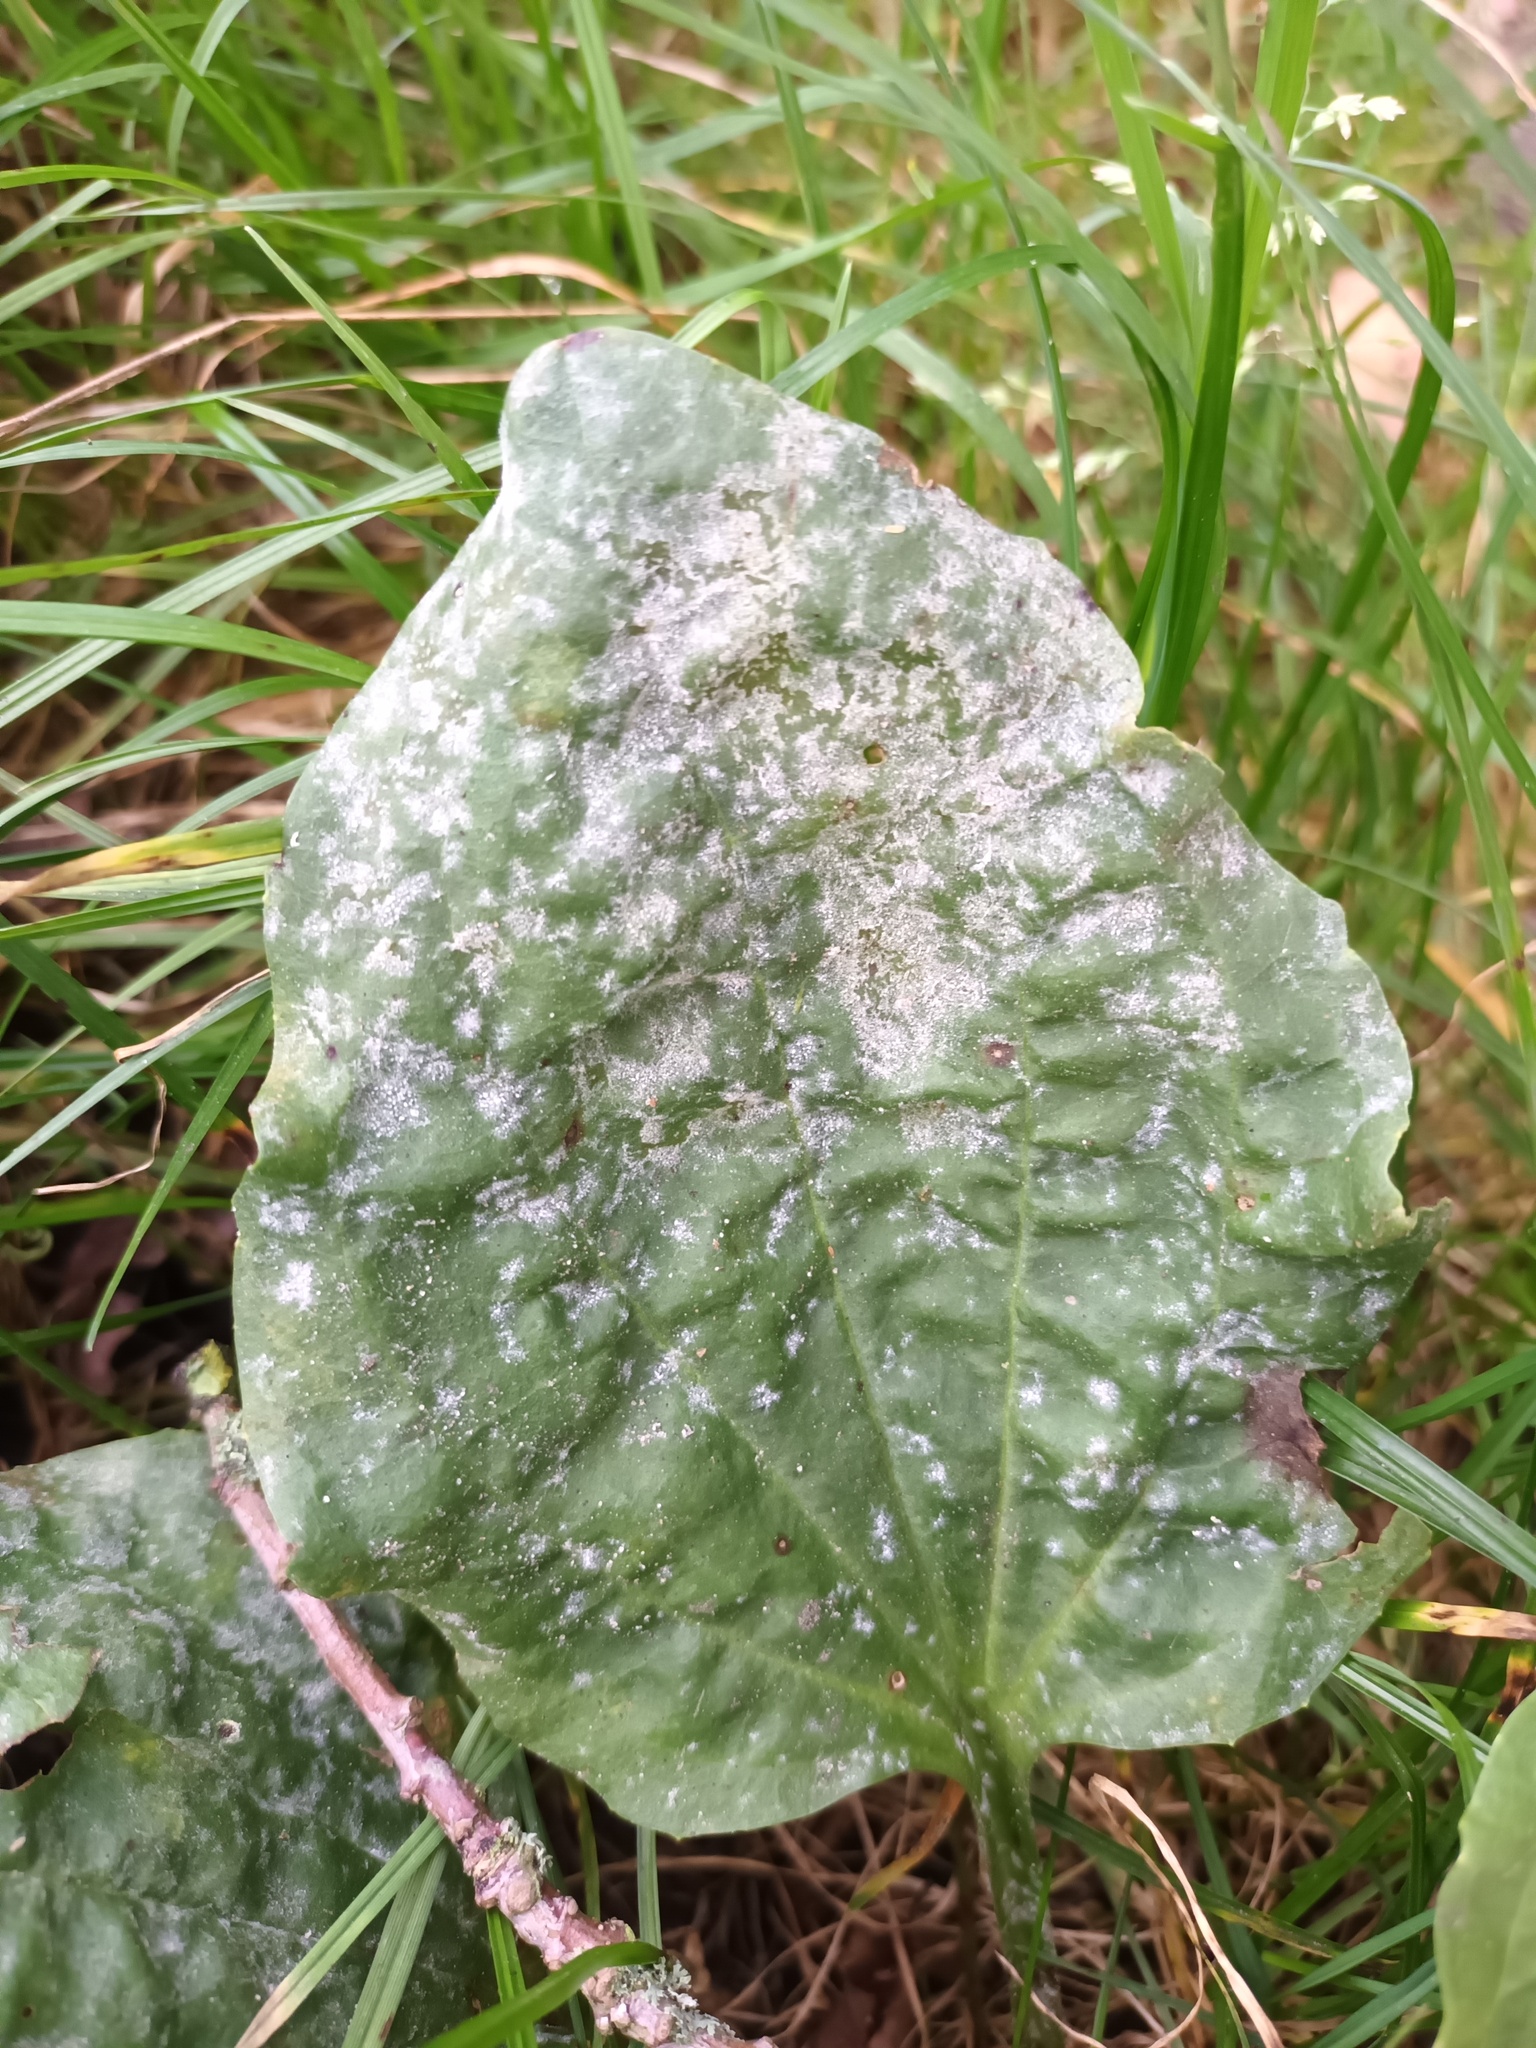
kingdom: Fungi
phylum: Ascomycota
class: Leotiomycetes
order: Helotiales
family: Erysiphaceae
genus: Golovinomyces
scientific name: Golovinomyces sordidus
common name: Plantain mildew
